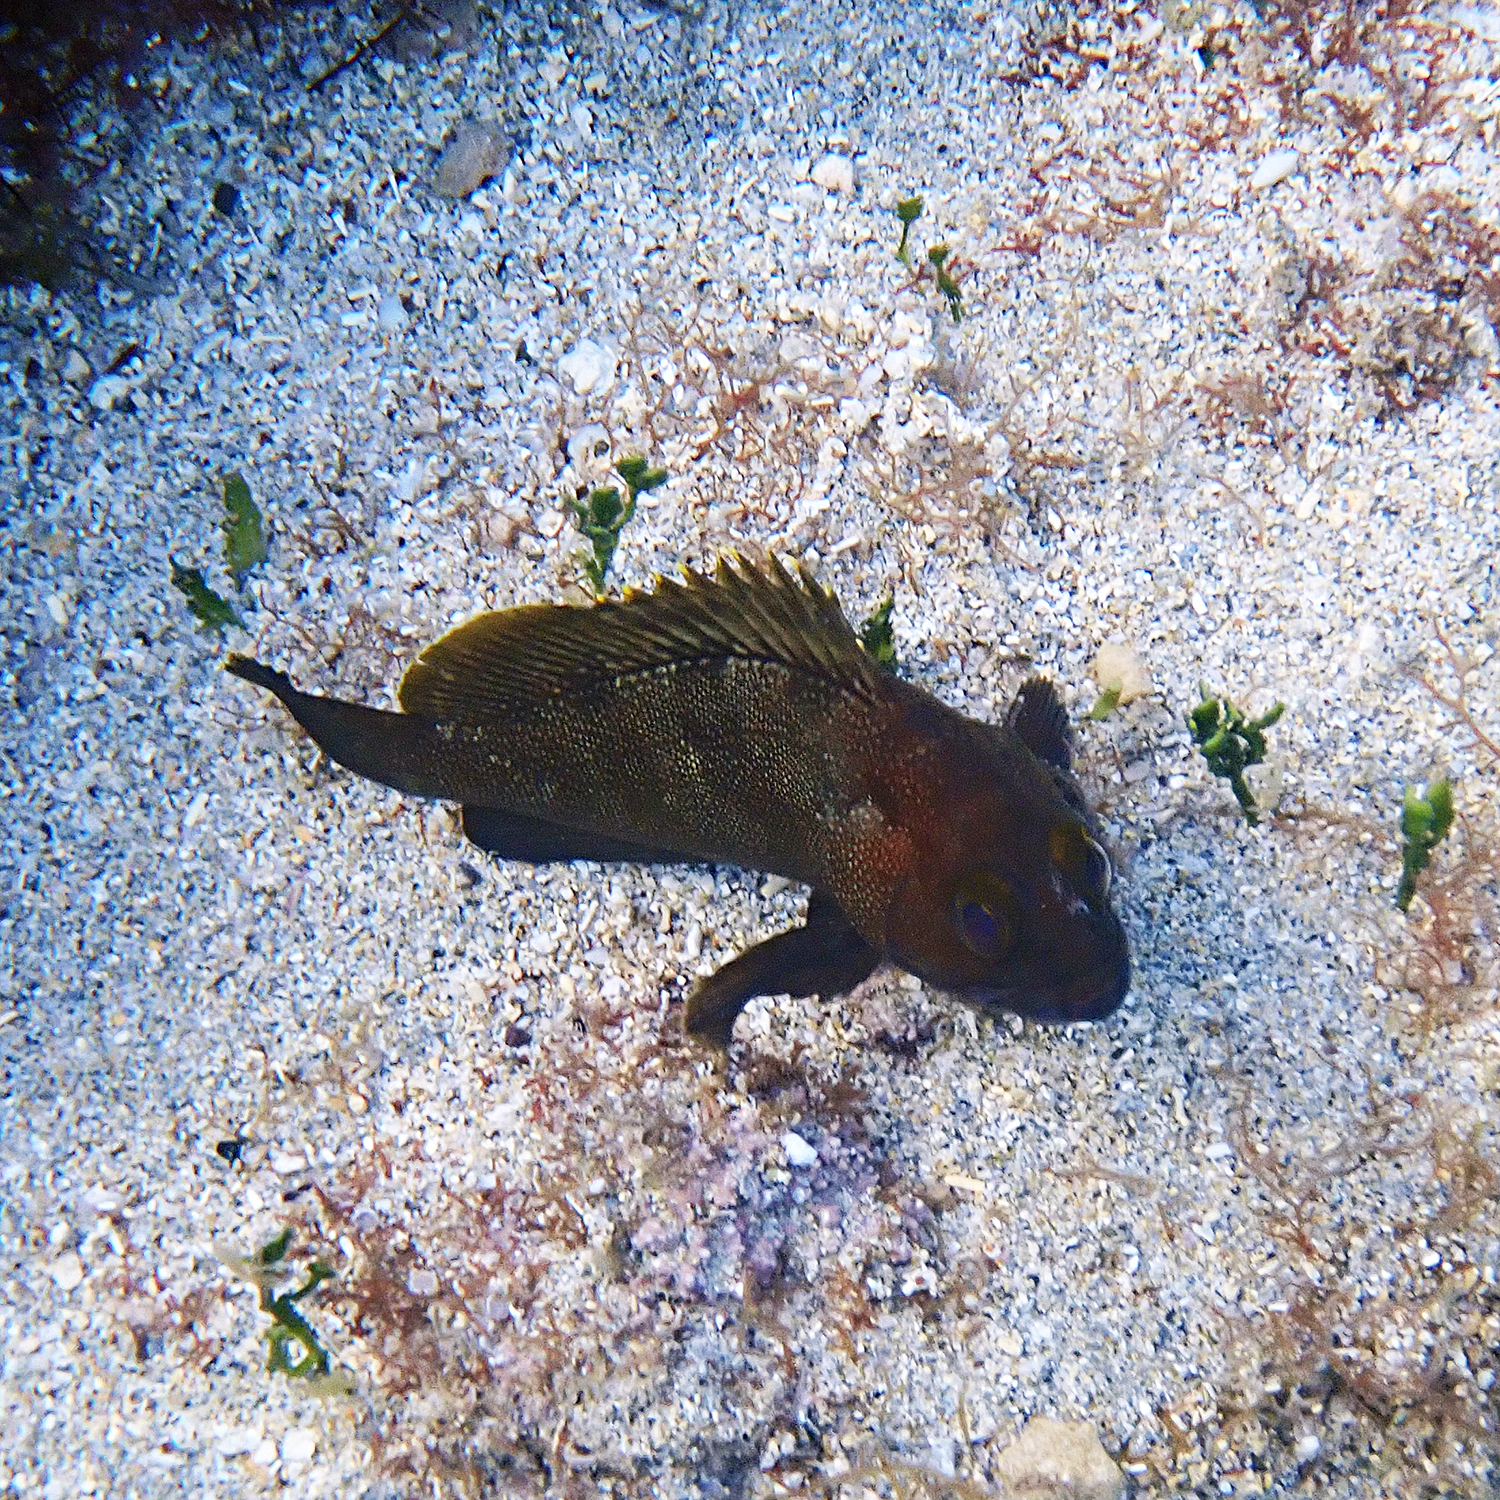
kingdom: Animalia
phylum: Chordata
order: Perciformes
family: Serranidae
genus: Epinephelus
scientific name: Epinephelus rivulatus
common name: Halfmoon grouper
